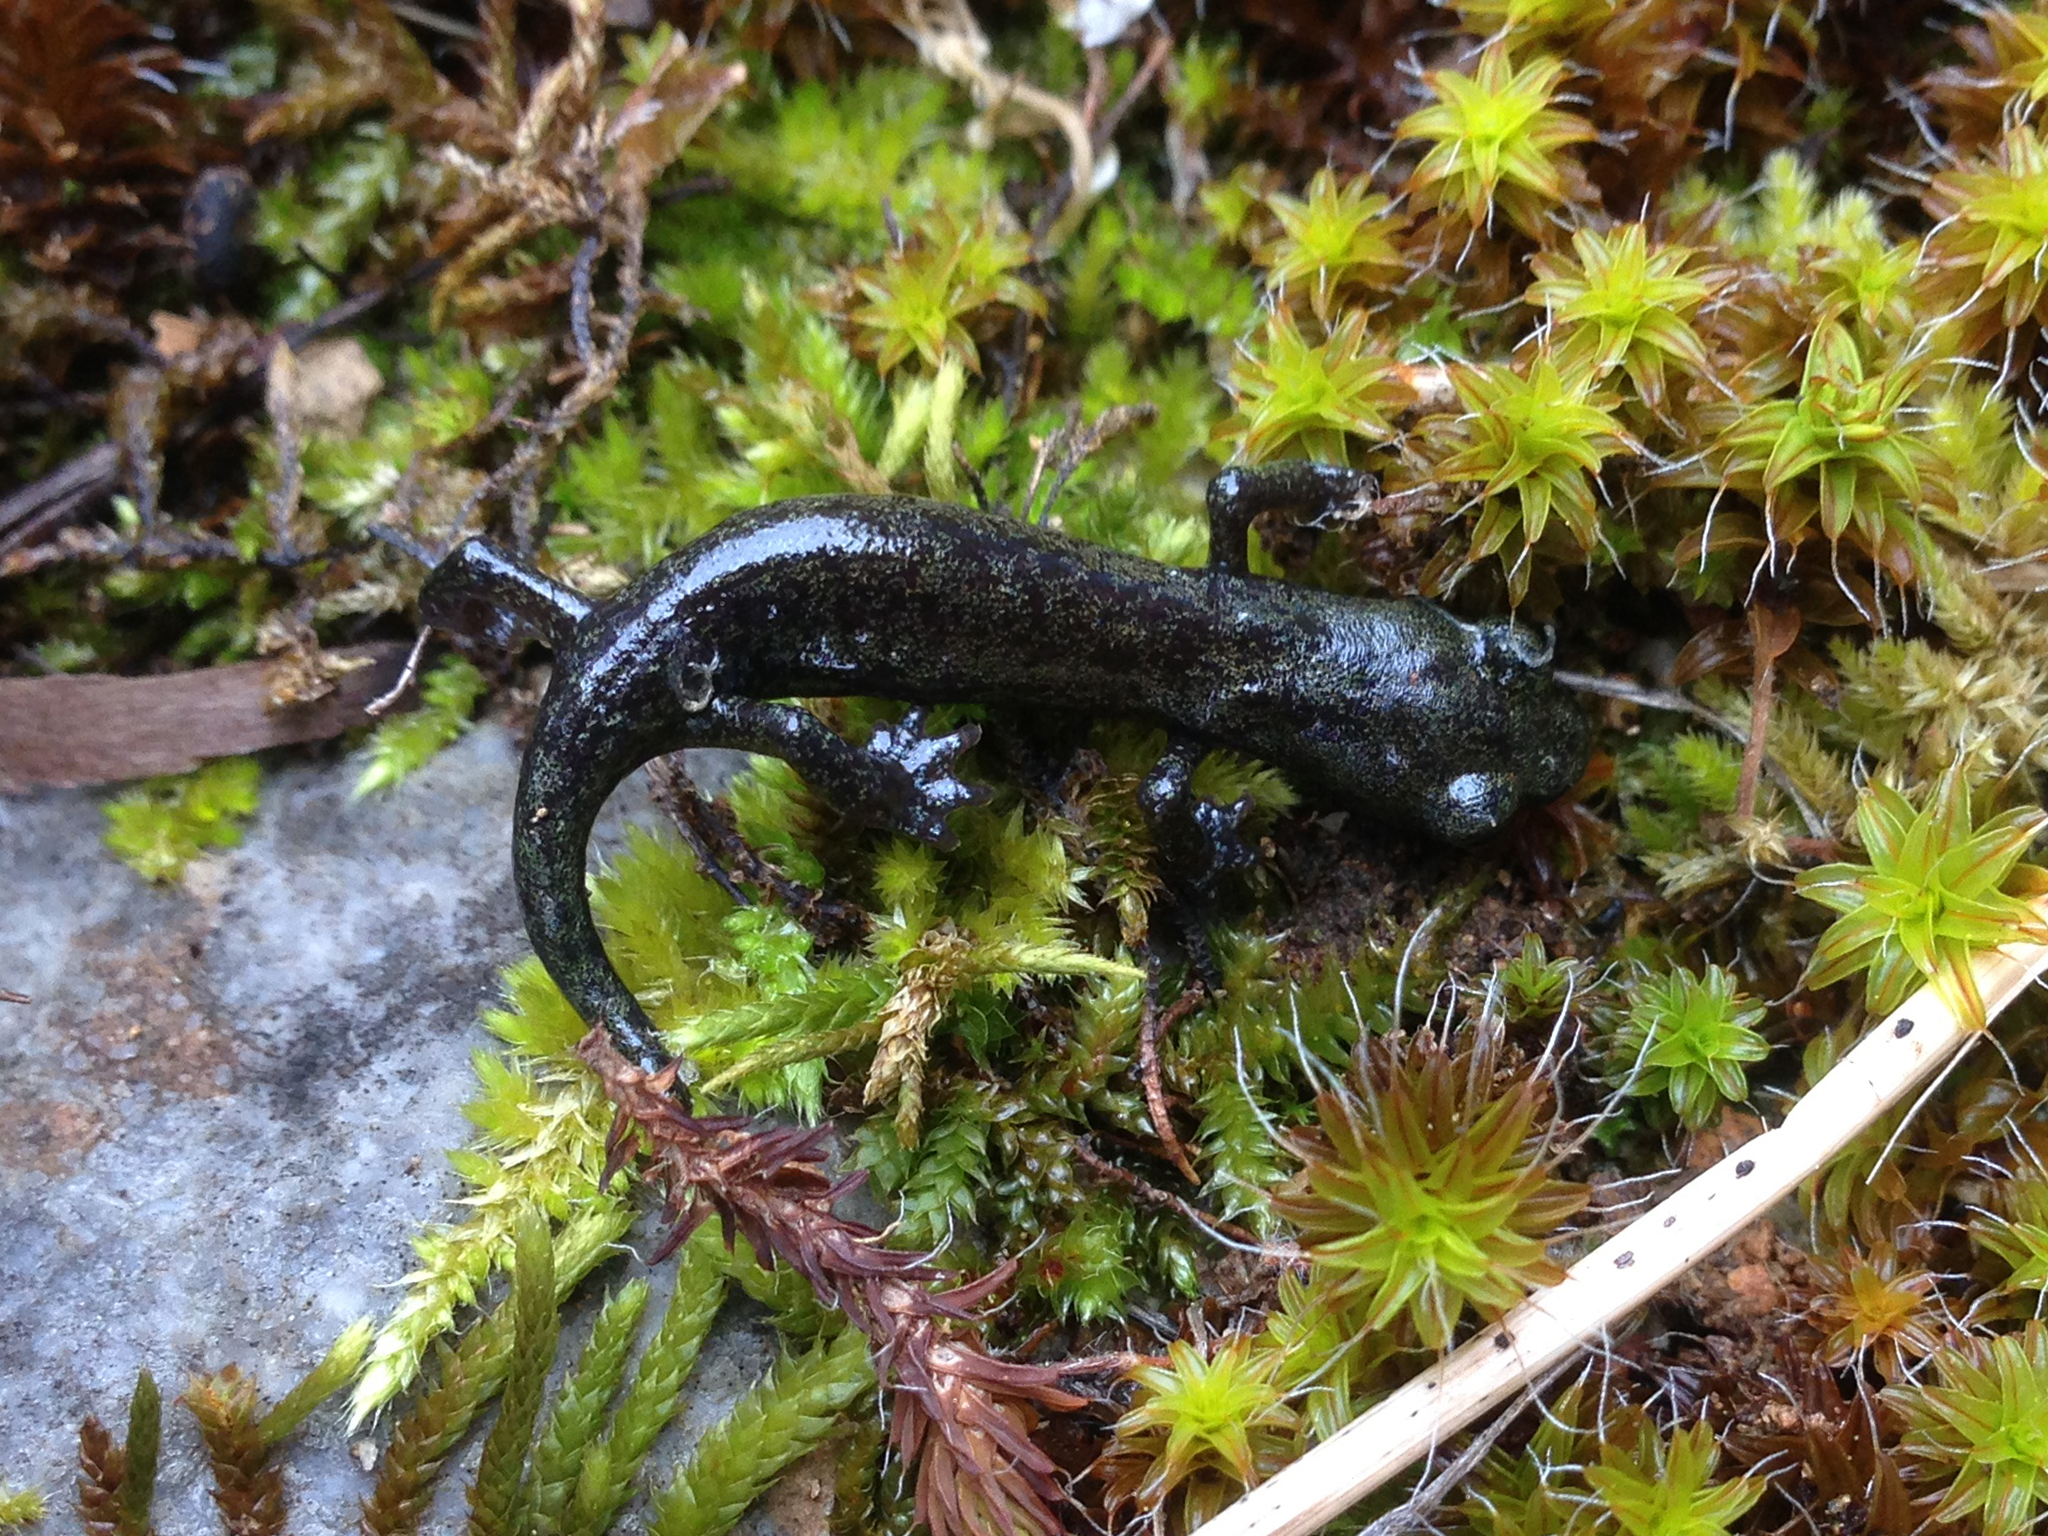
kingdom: Animalia
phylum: Chordata
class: Amphibia
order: Caudata
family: Plethodontidae
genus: Hydromantes
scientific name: Hydromantes samweli
